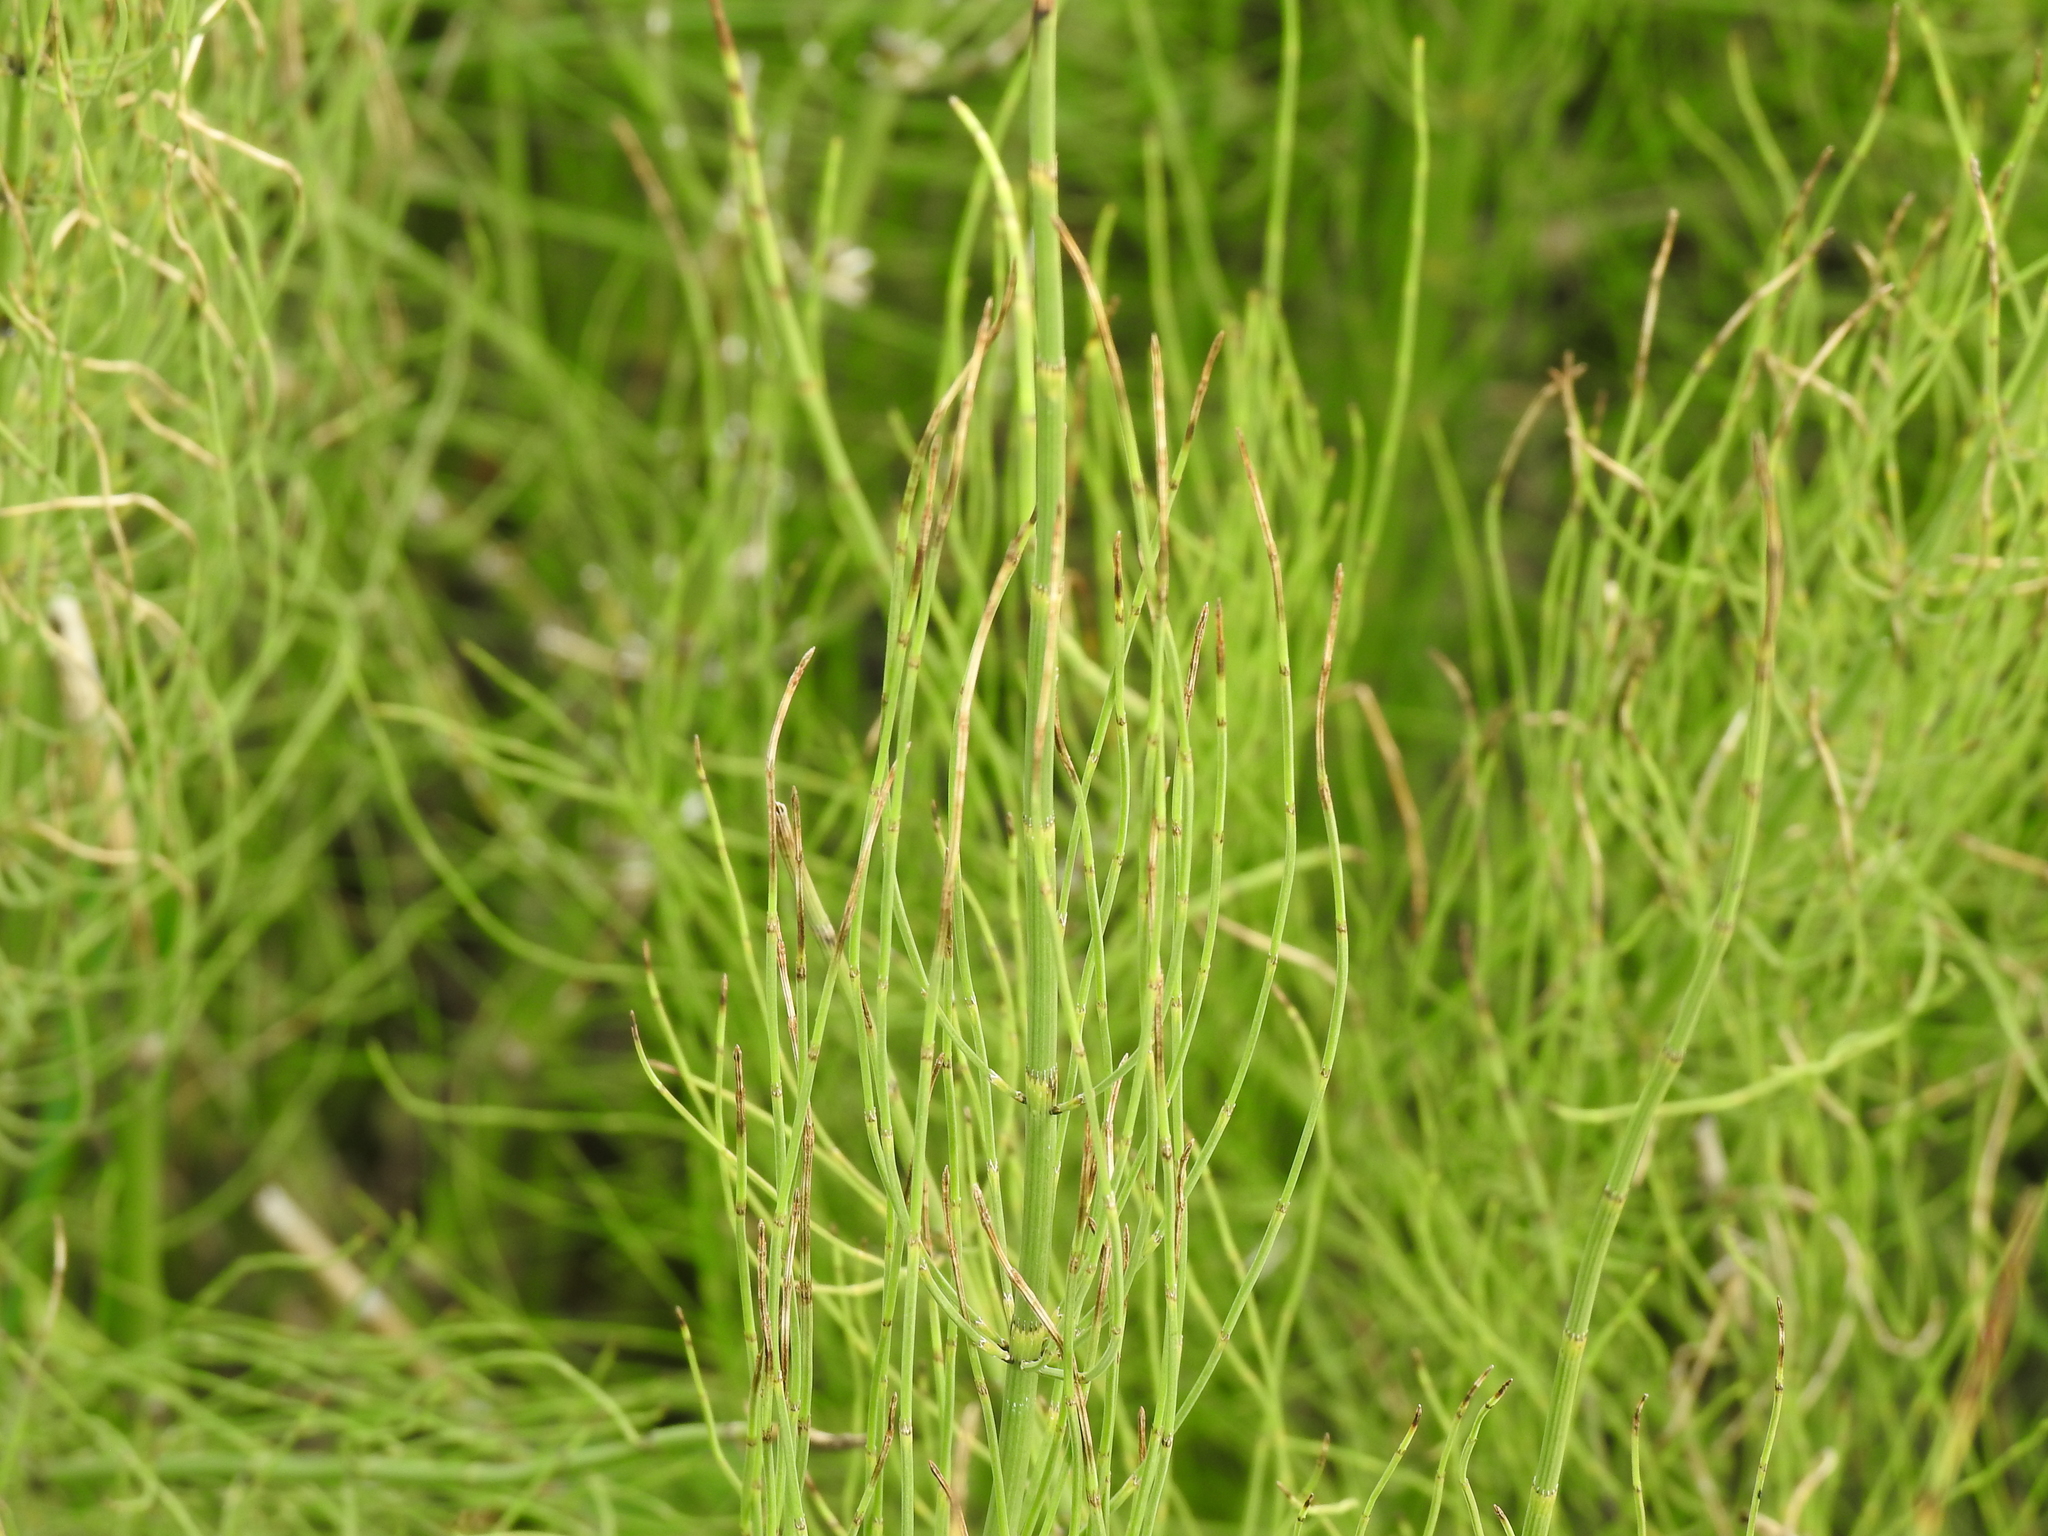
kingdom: Plantae
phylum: Tracheophyta
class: Polypodiopsida
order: Equisetales
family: Equisetaceae
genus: Equisetum
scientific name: Equisetum fluviatile
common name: Water horsetail
